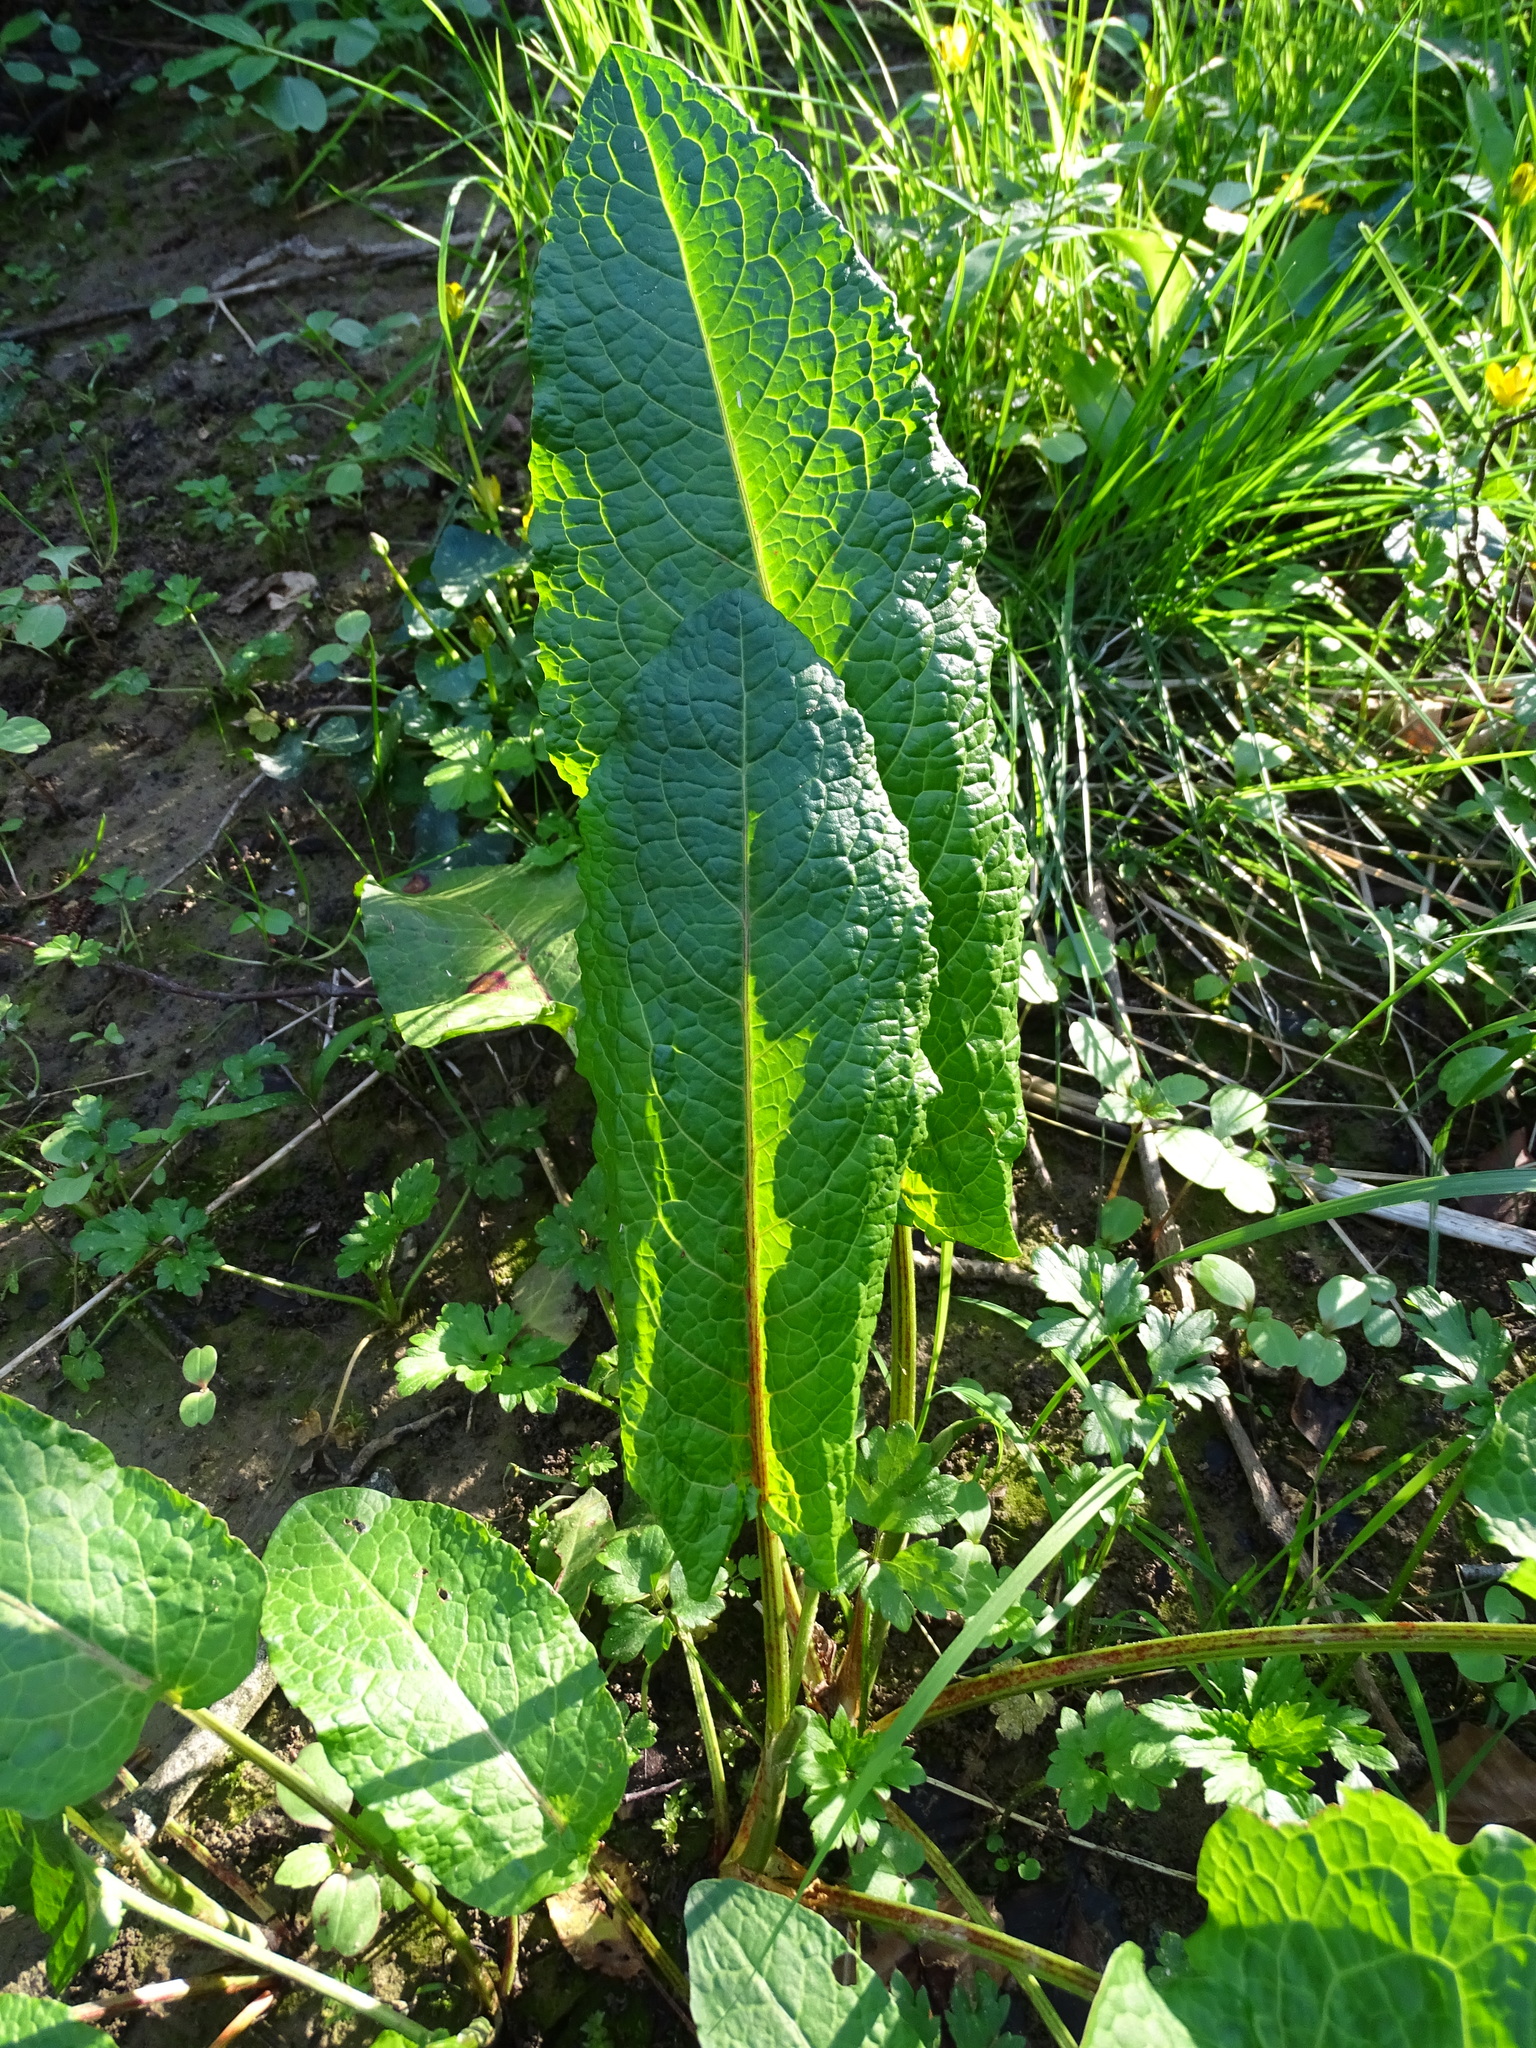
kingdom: Plantae
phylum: Tracheophyta
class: Magnoliopsida
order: Caryophyllales
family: Polygonaceae
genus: Rumex
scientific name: Rumex obtusifolius
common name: Bitter dock
